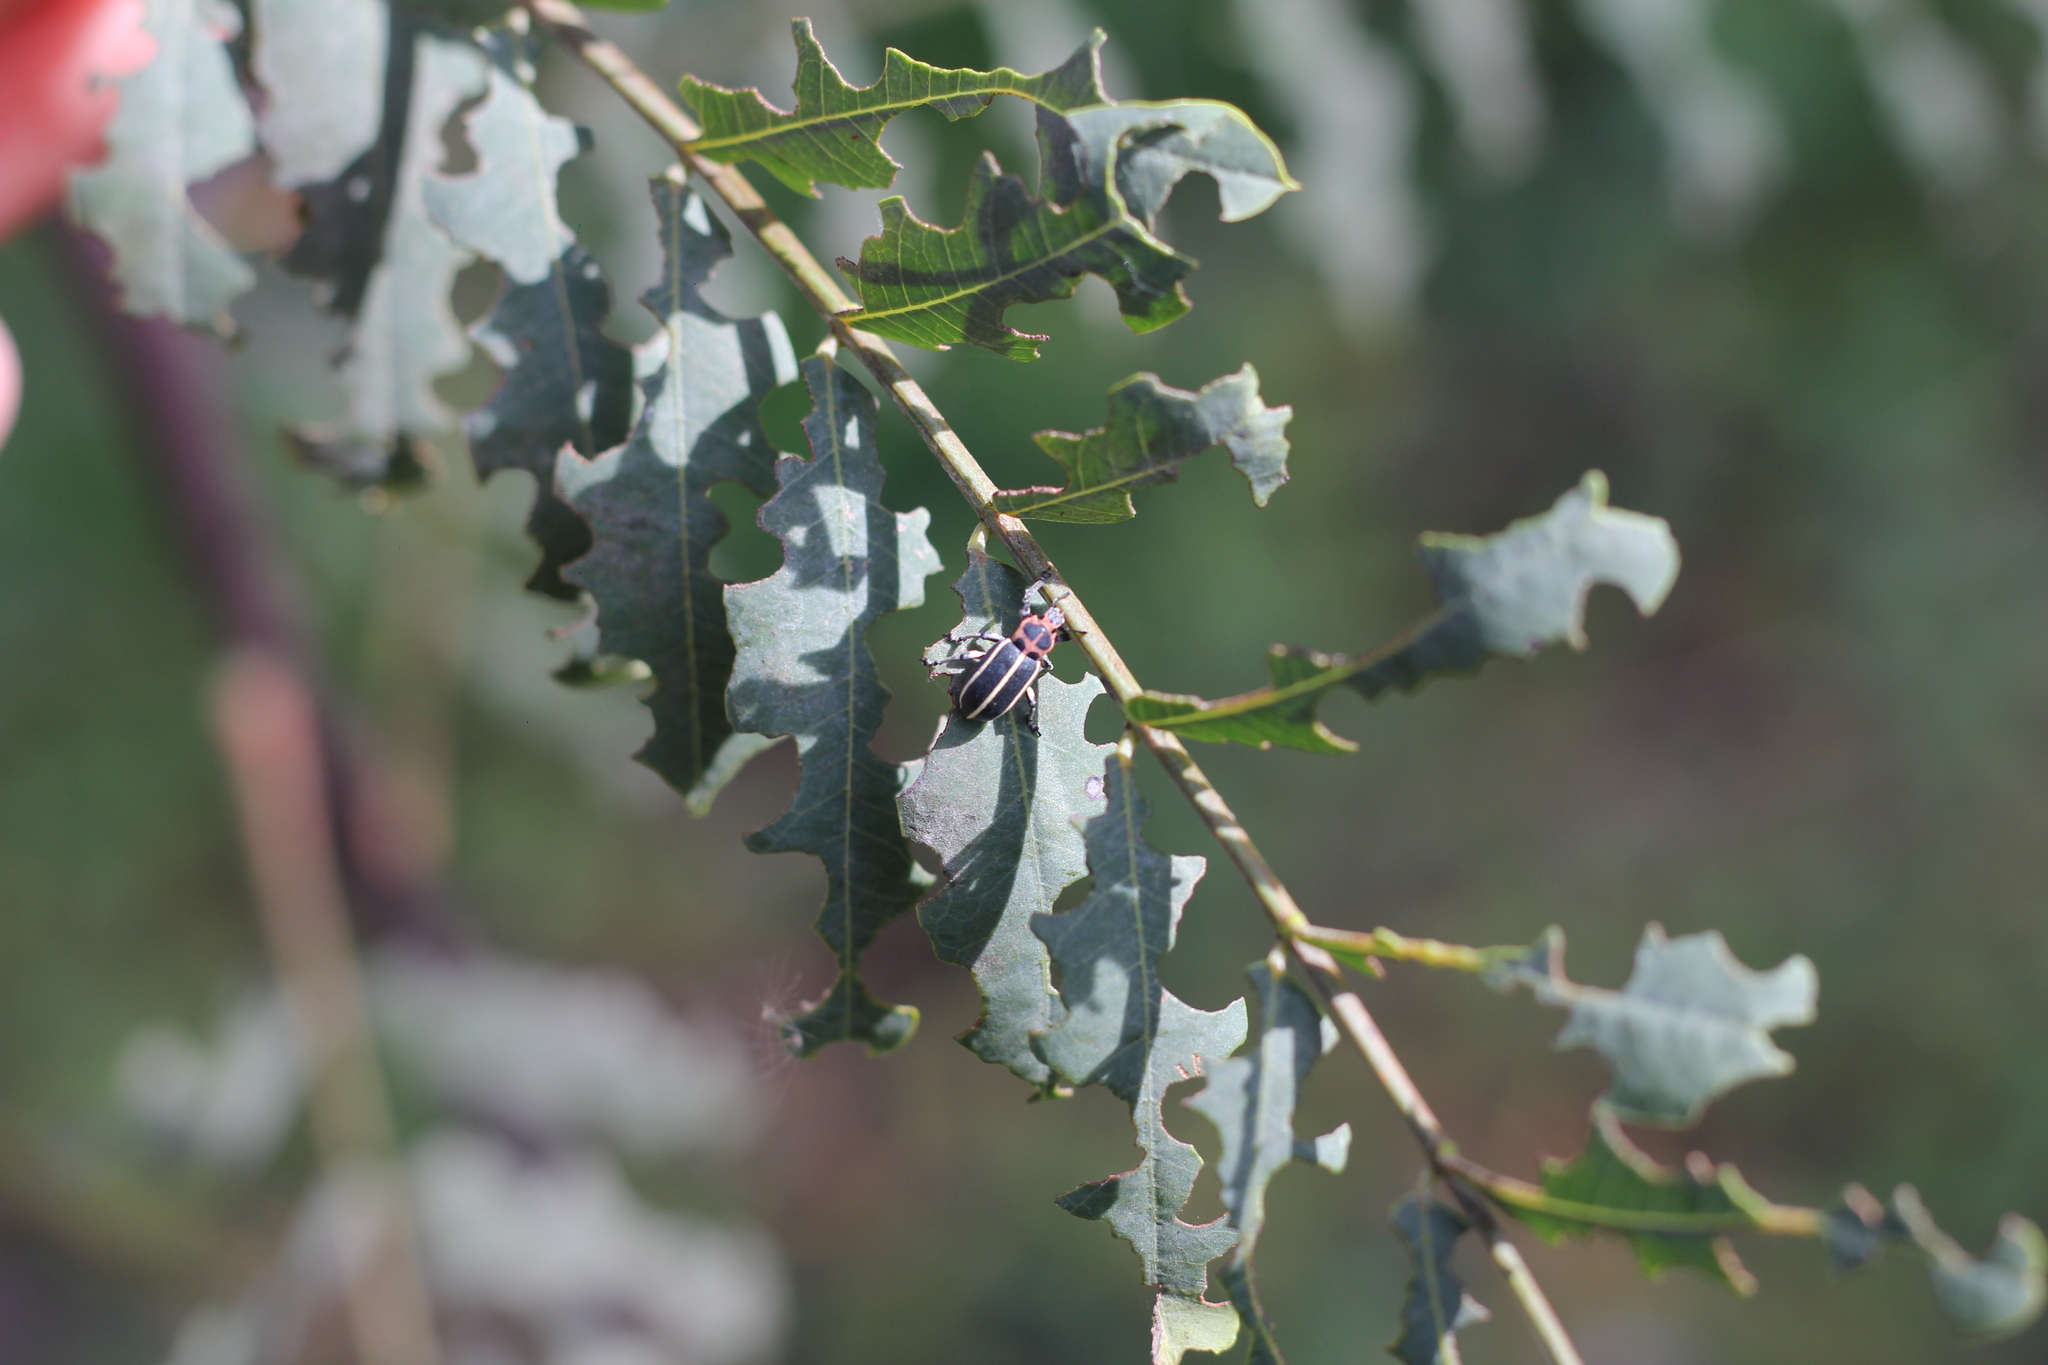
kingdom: Animalia
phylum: Arthropoda
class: Insecta
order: Coleoptera
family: Curculionidae
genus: Eudiagogus
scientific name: Eudiagogus episcopalis
